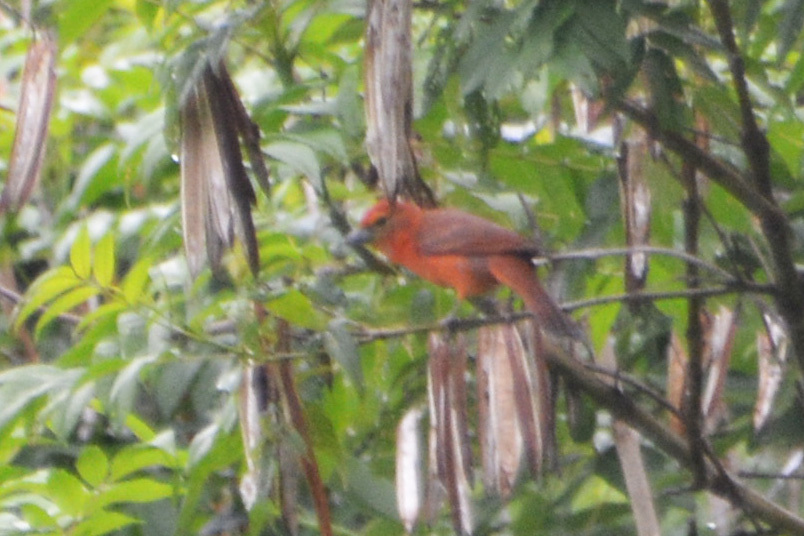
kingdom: Animalia
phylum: Chordata
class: Aves
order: Passeriformes
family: Cardinalidae
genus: Piranga
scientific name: Piranga flava
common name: Red tanager
